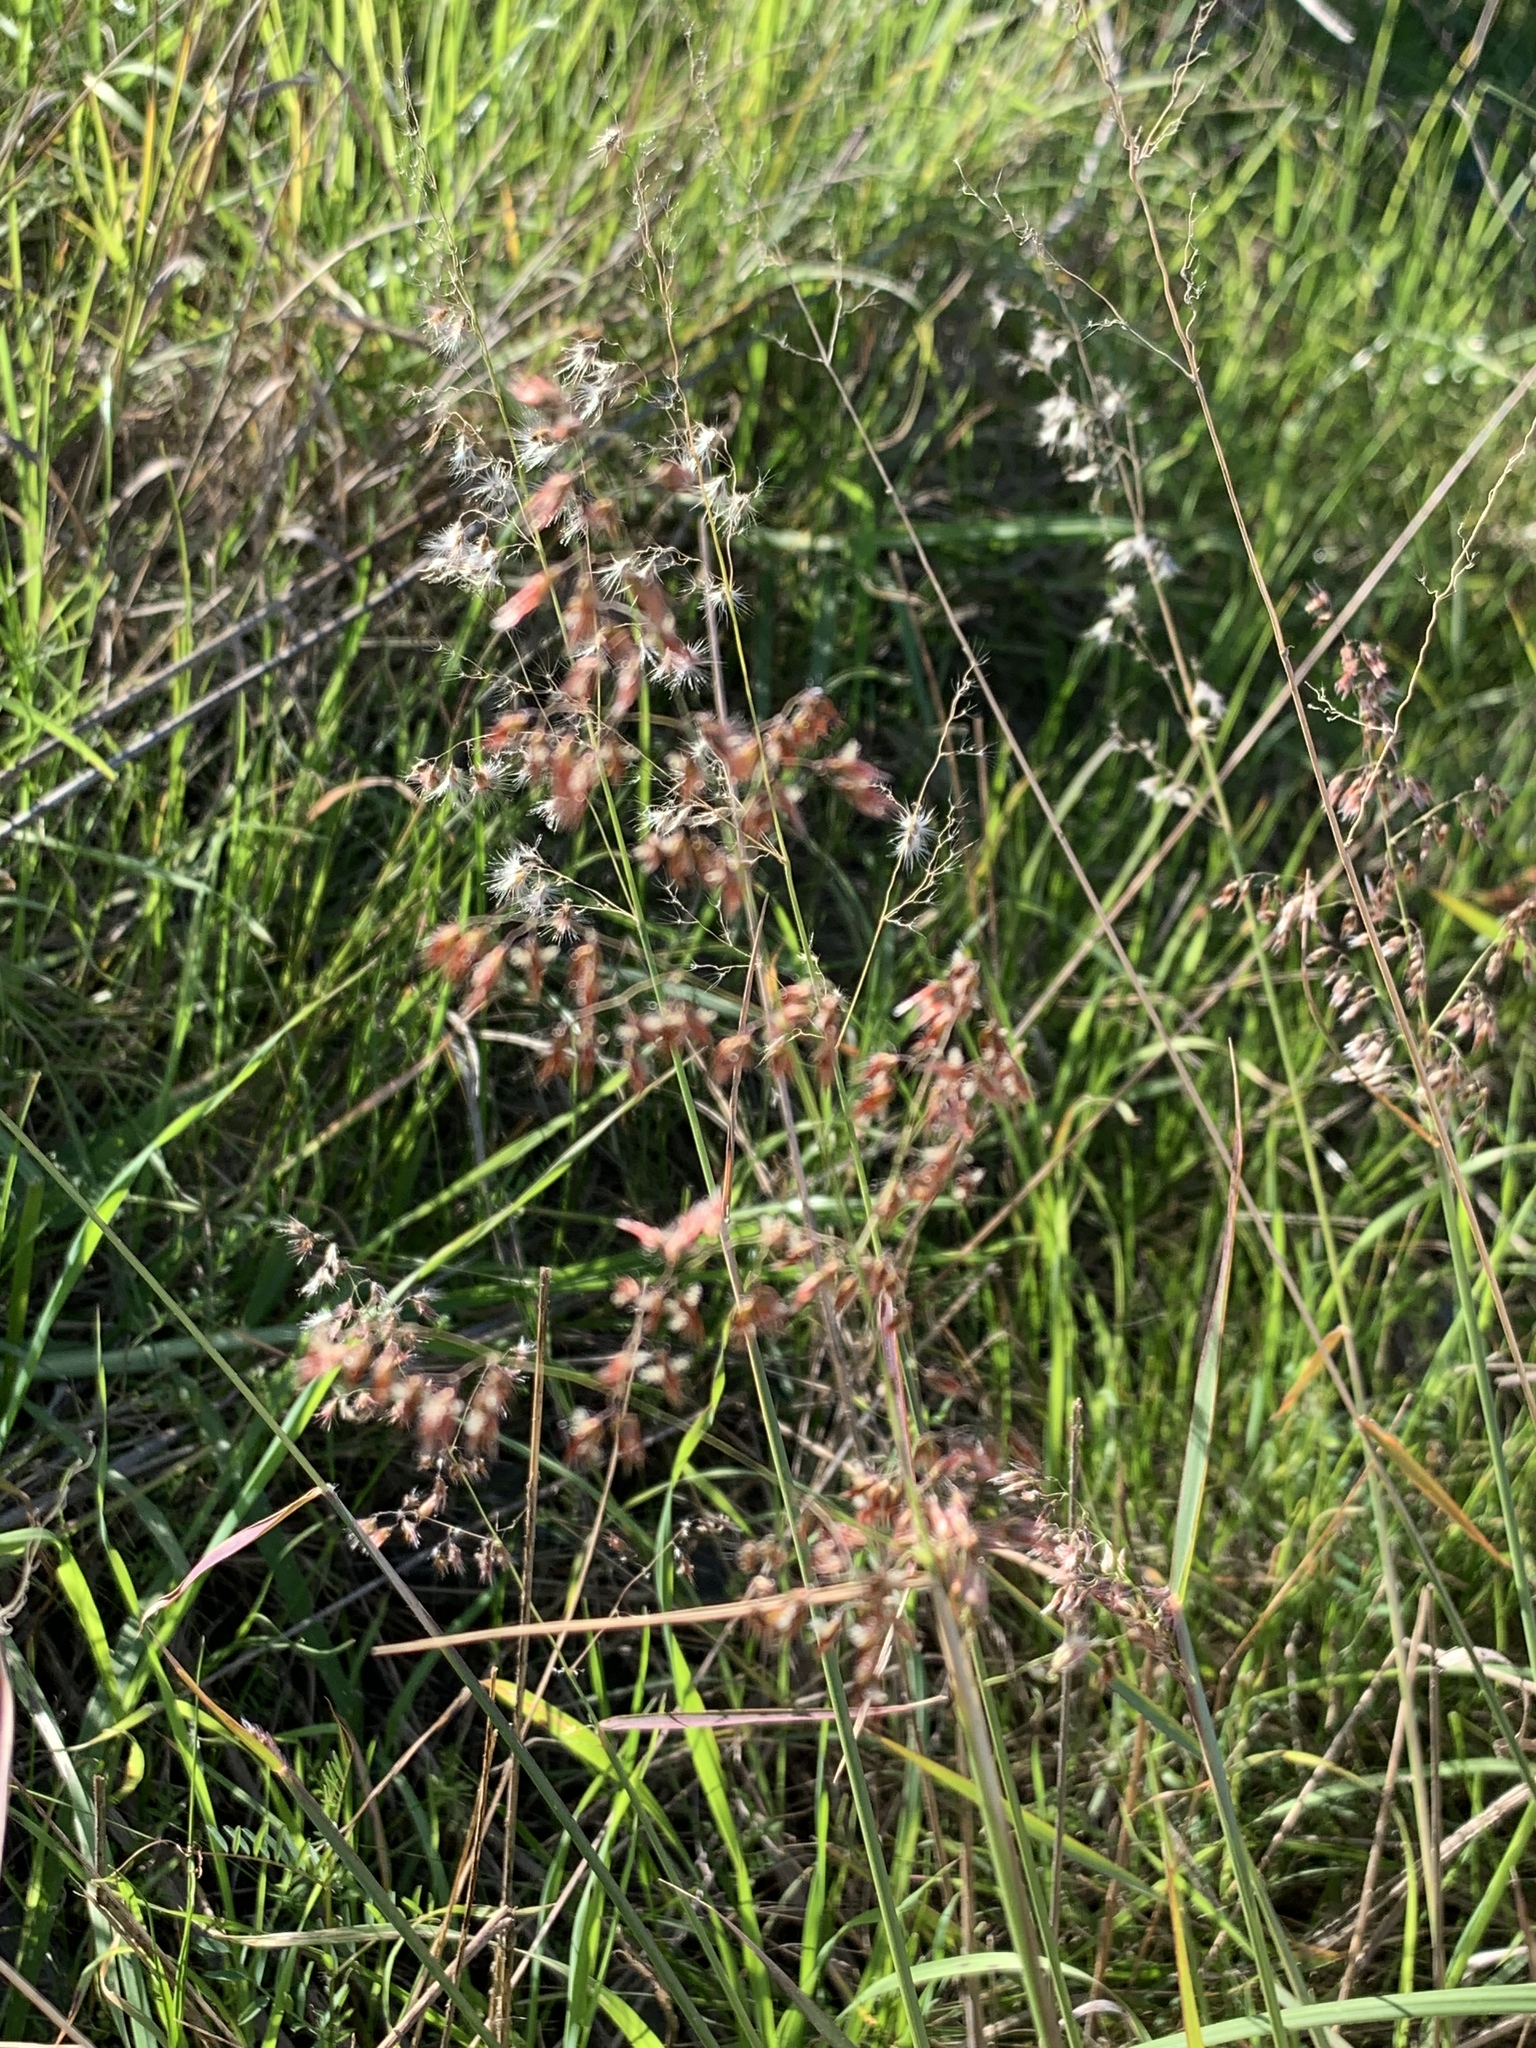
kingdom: Plantae
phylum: Tracheophyta
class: Liliopsida
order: Poales
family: Poaceae
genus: Melinis
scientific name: Melinis repens
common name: Rose natal grass
